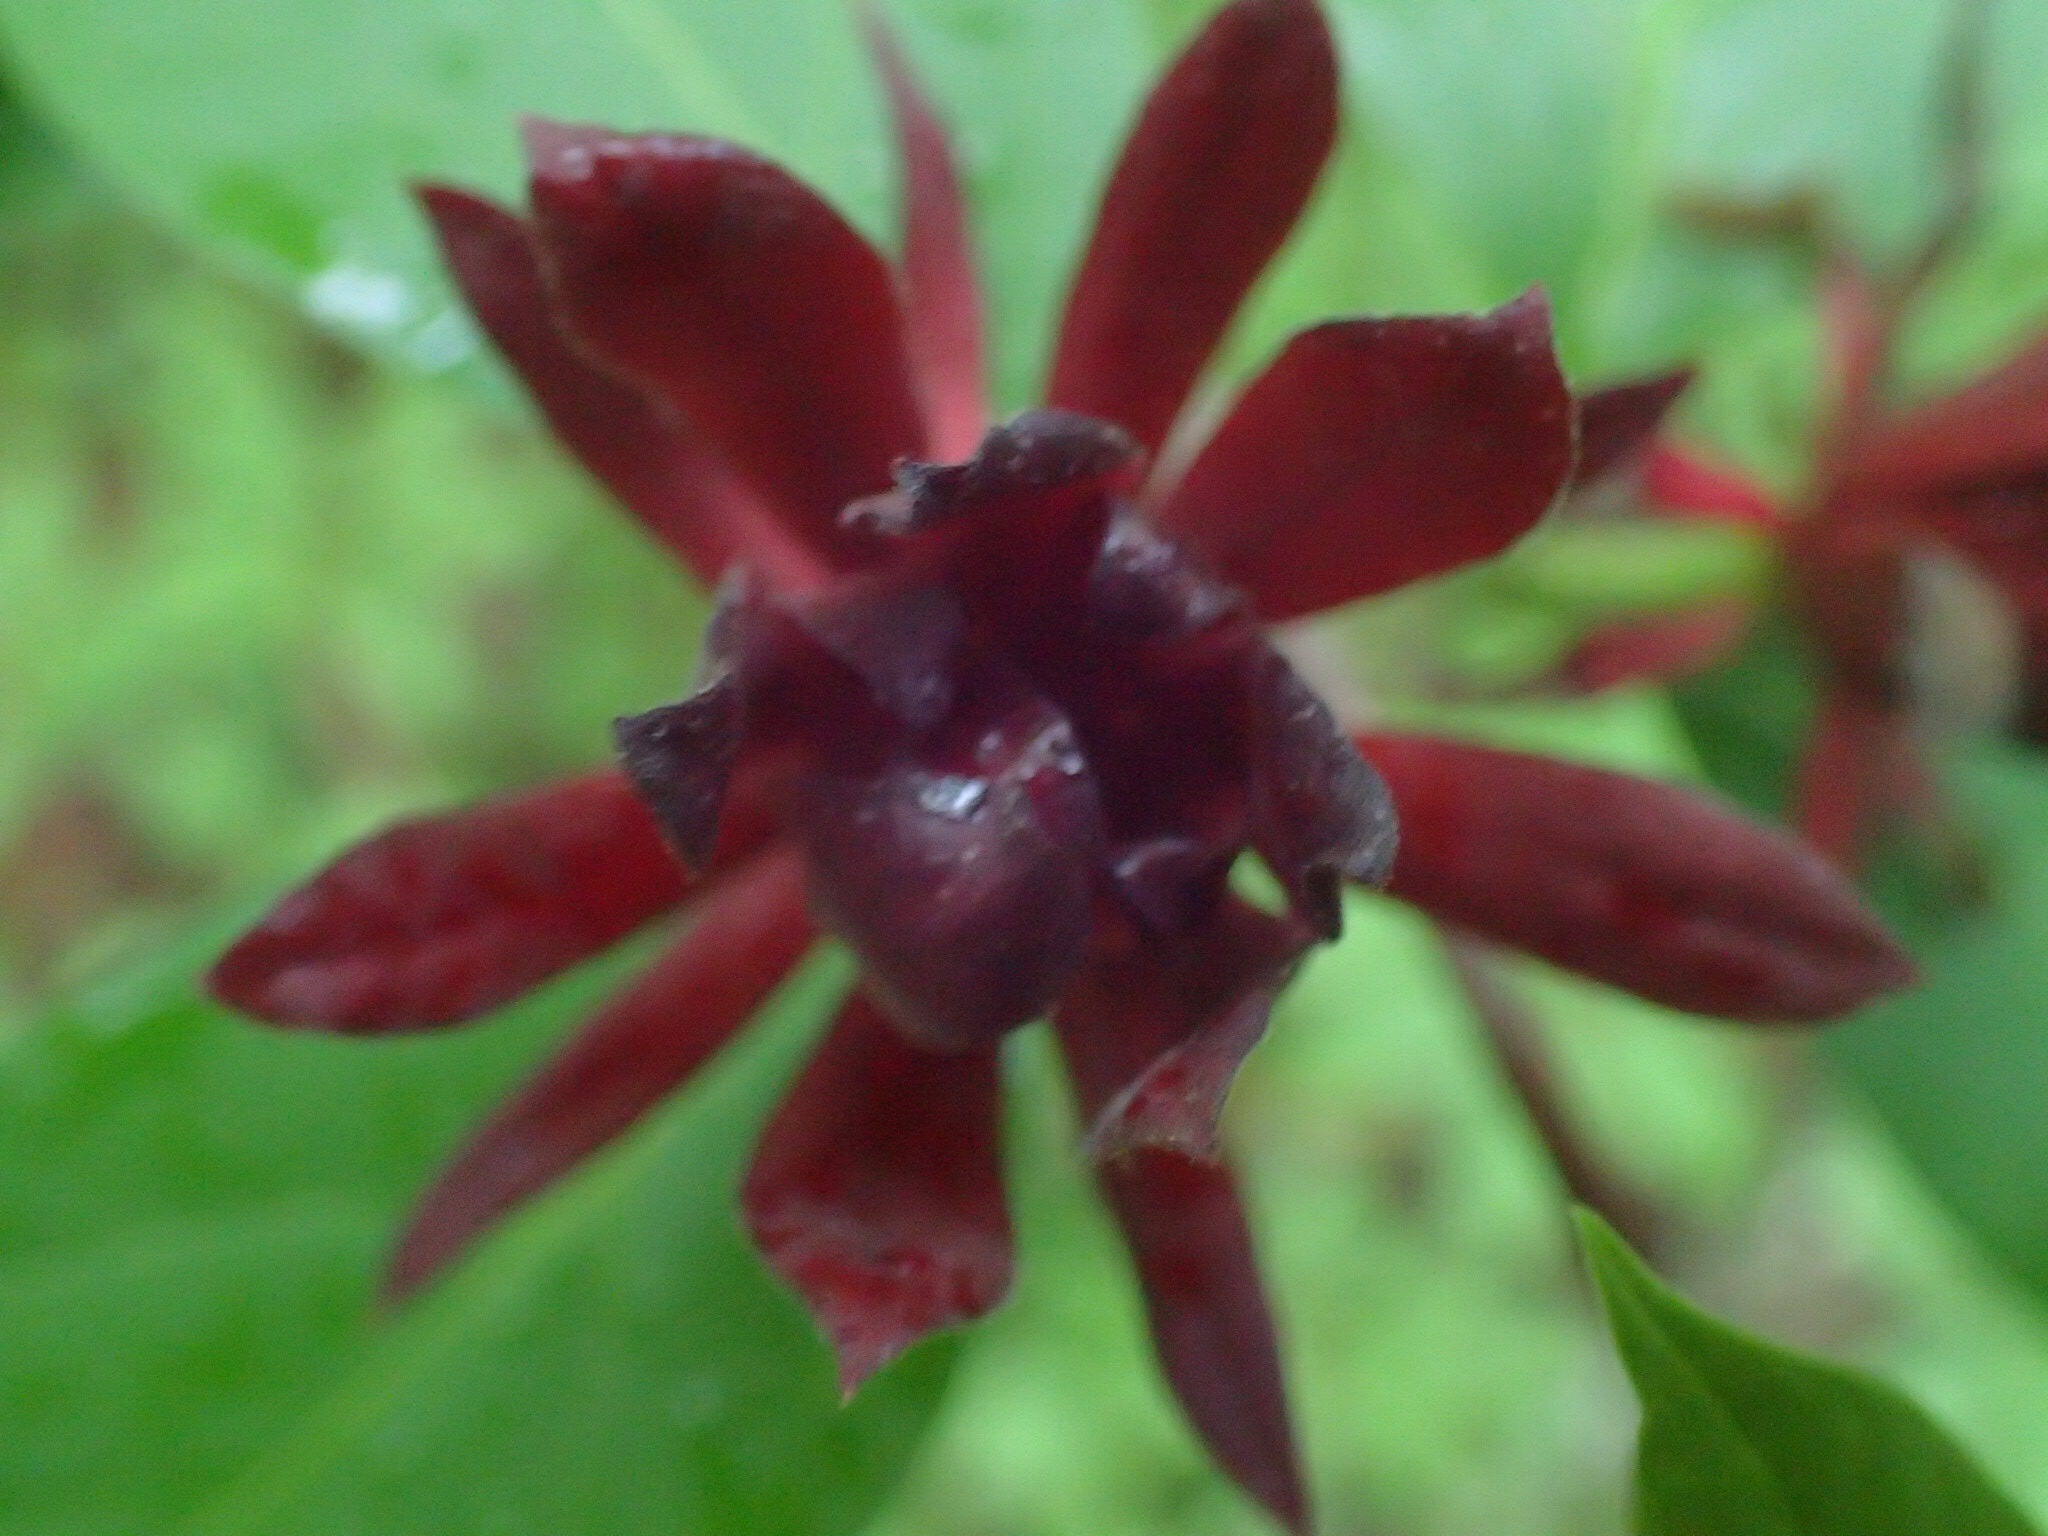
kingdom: Plantae
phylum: Tracheophyta
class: Magnoliopsida
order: Laurales
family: Calycanthaceae
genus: Calycanthus
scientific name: Calycanthus floridus
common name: Carolina-allspice
